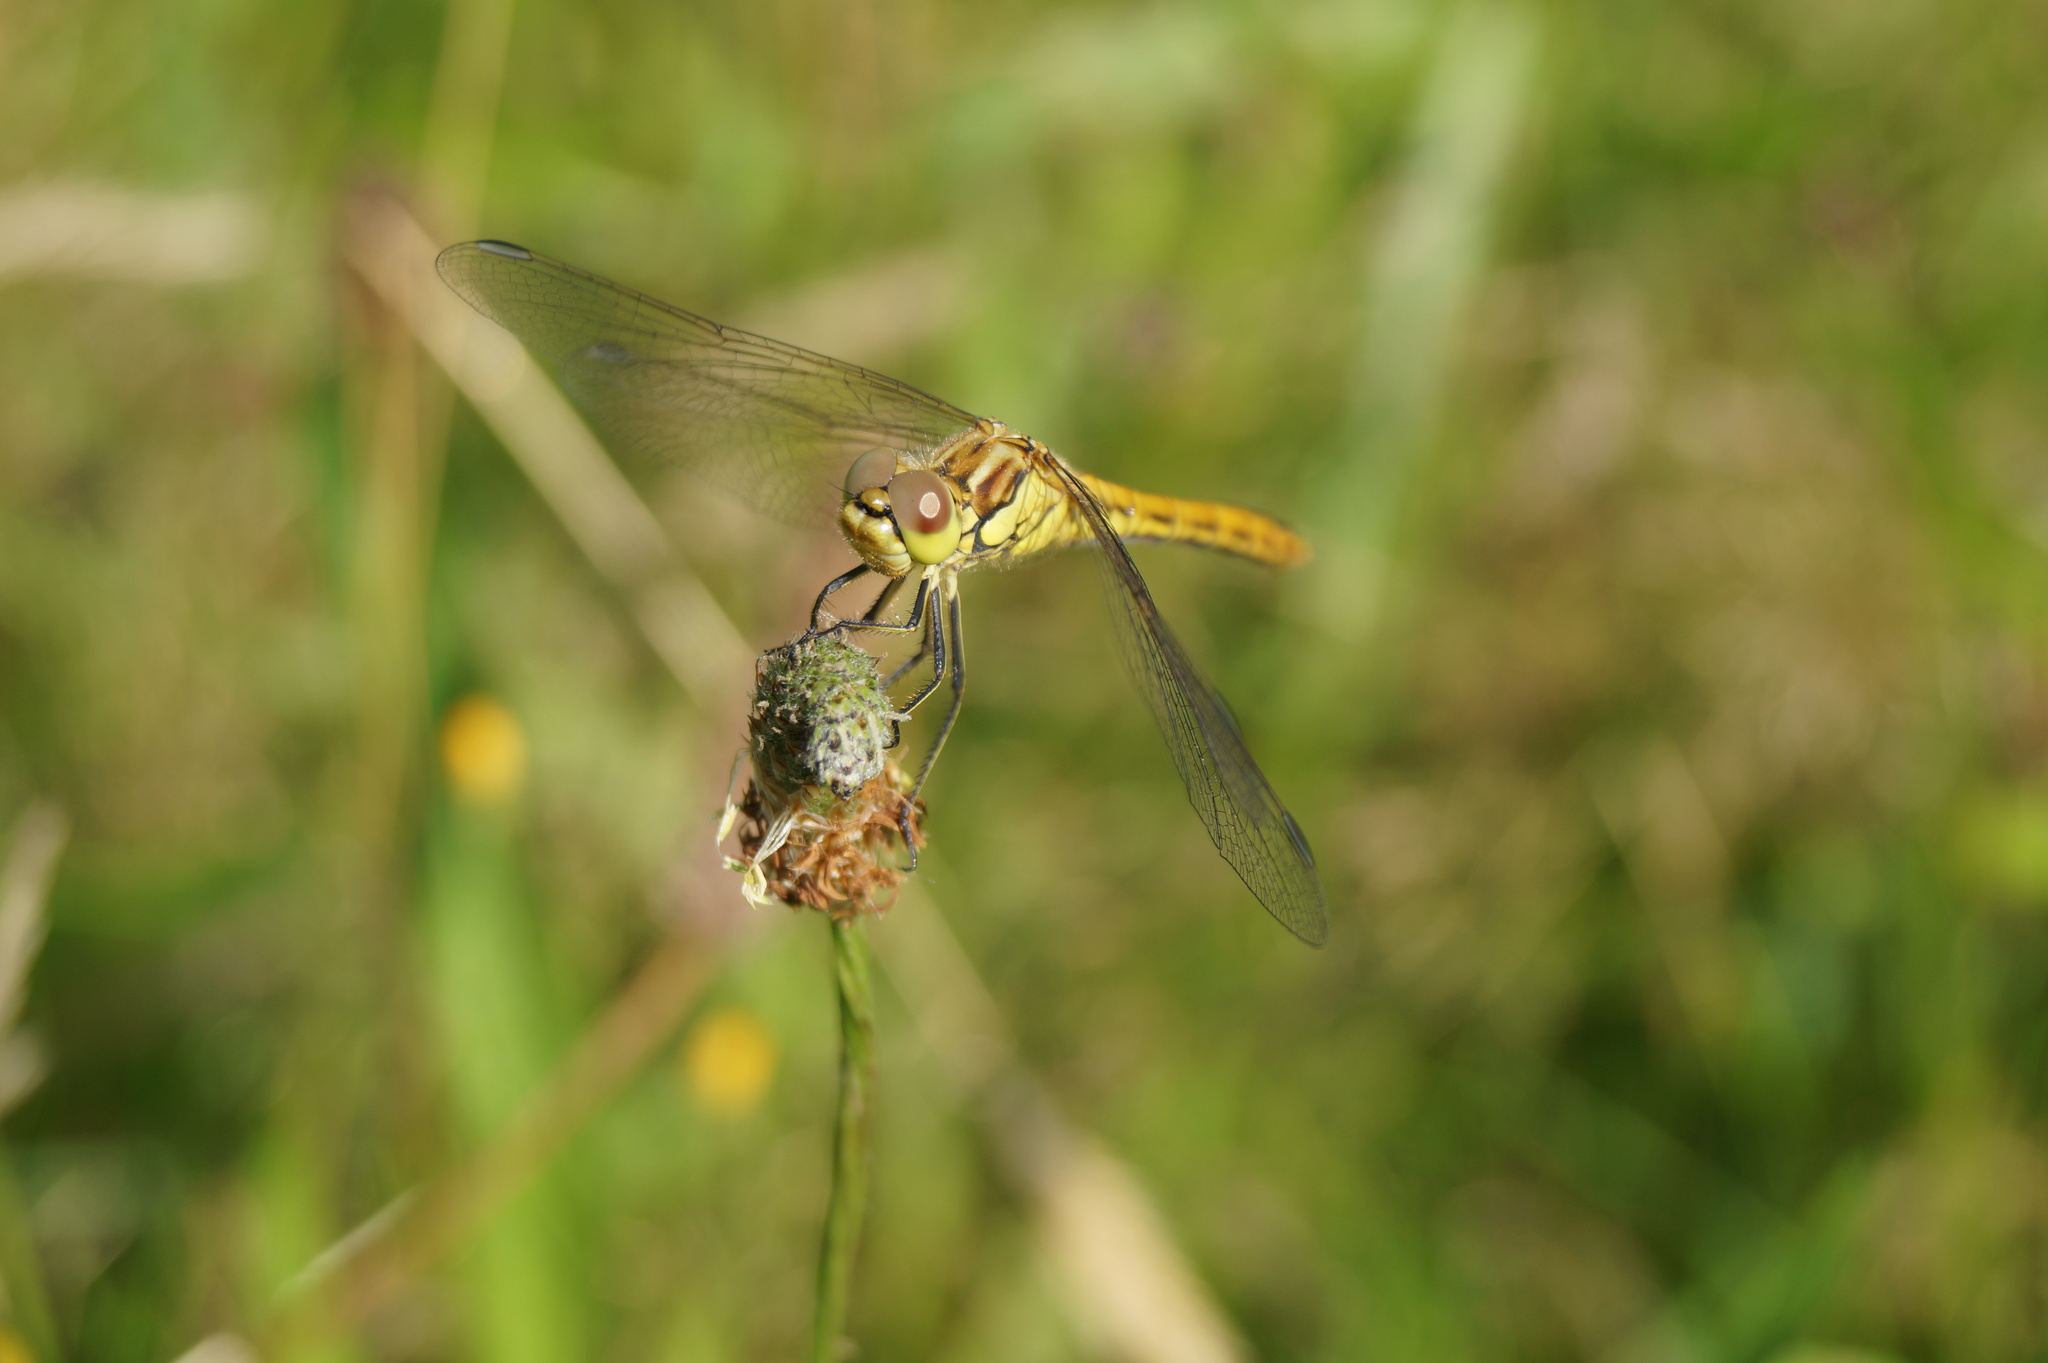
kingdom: Animalia
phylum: Arthropoda
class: Insecta
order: Odonata
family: Libellulidae
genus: Sympetrum
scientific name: Sympetrum vulgatum
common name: Vagrant darter
